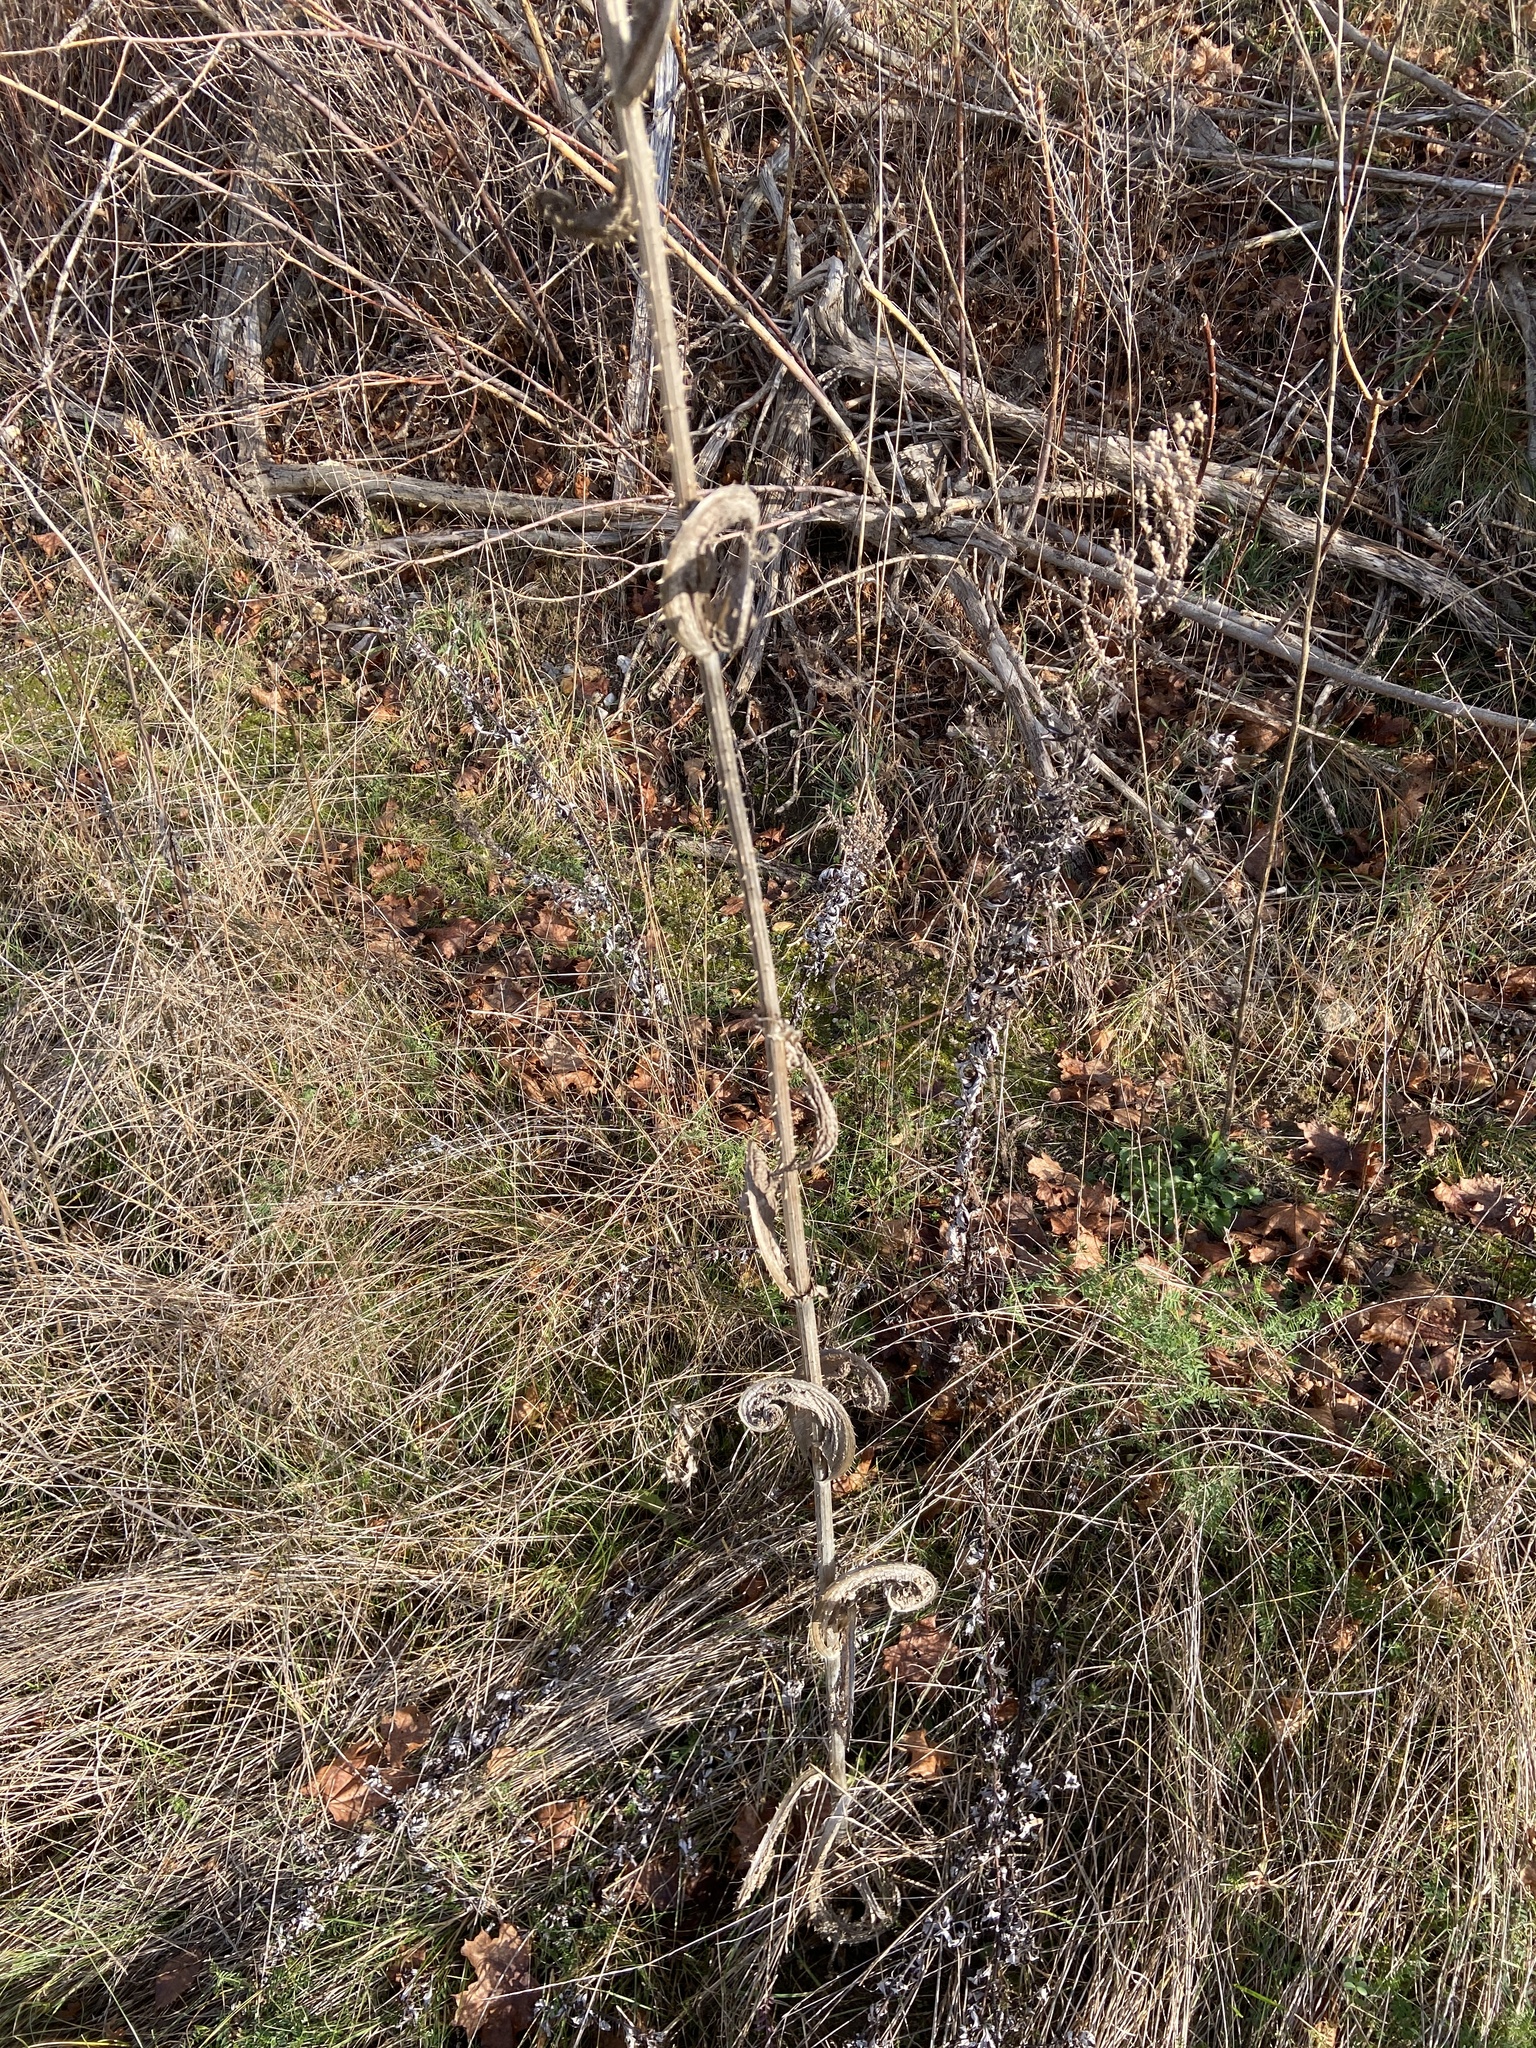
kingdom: Plantae
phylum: Tracheophyta
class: Magnoliopsida
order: Dipsacales
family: Caprifoliaceae
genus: Dipsacus
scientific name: Dipsacus fullonum
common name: Teasel
